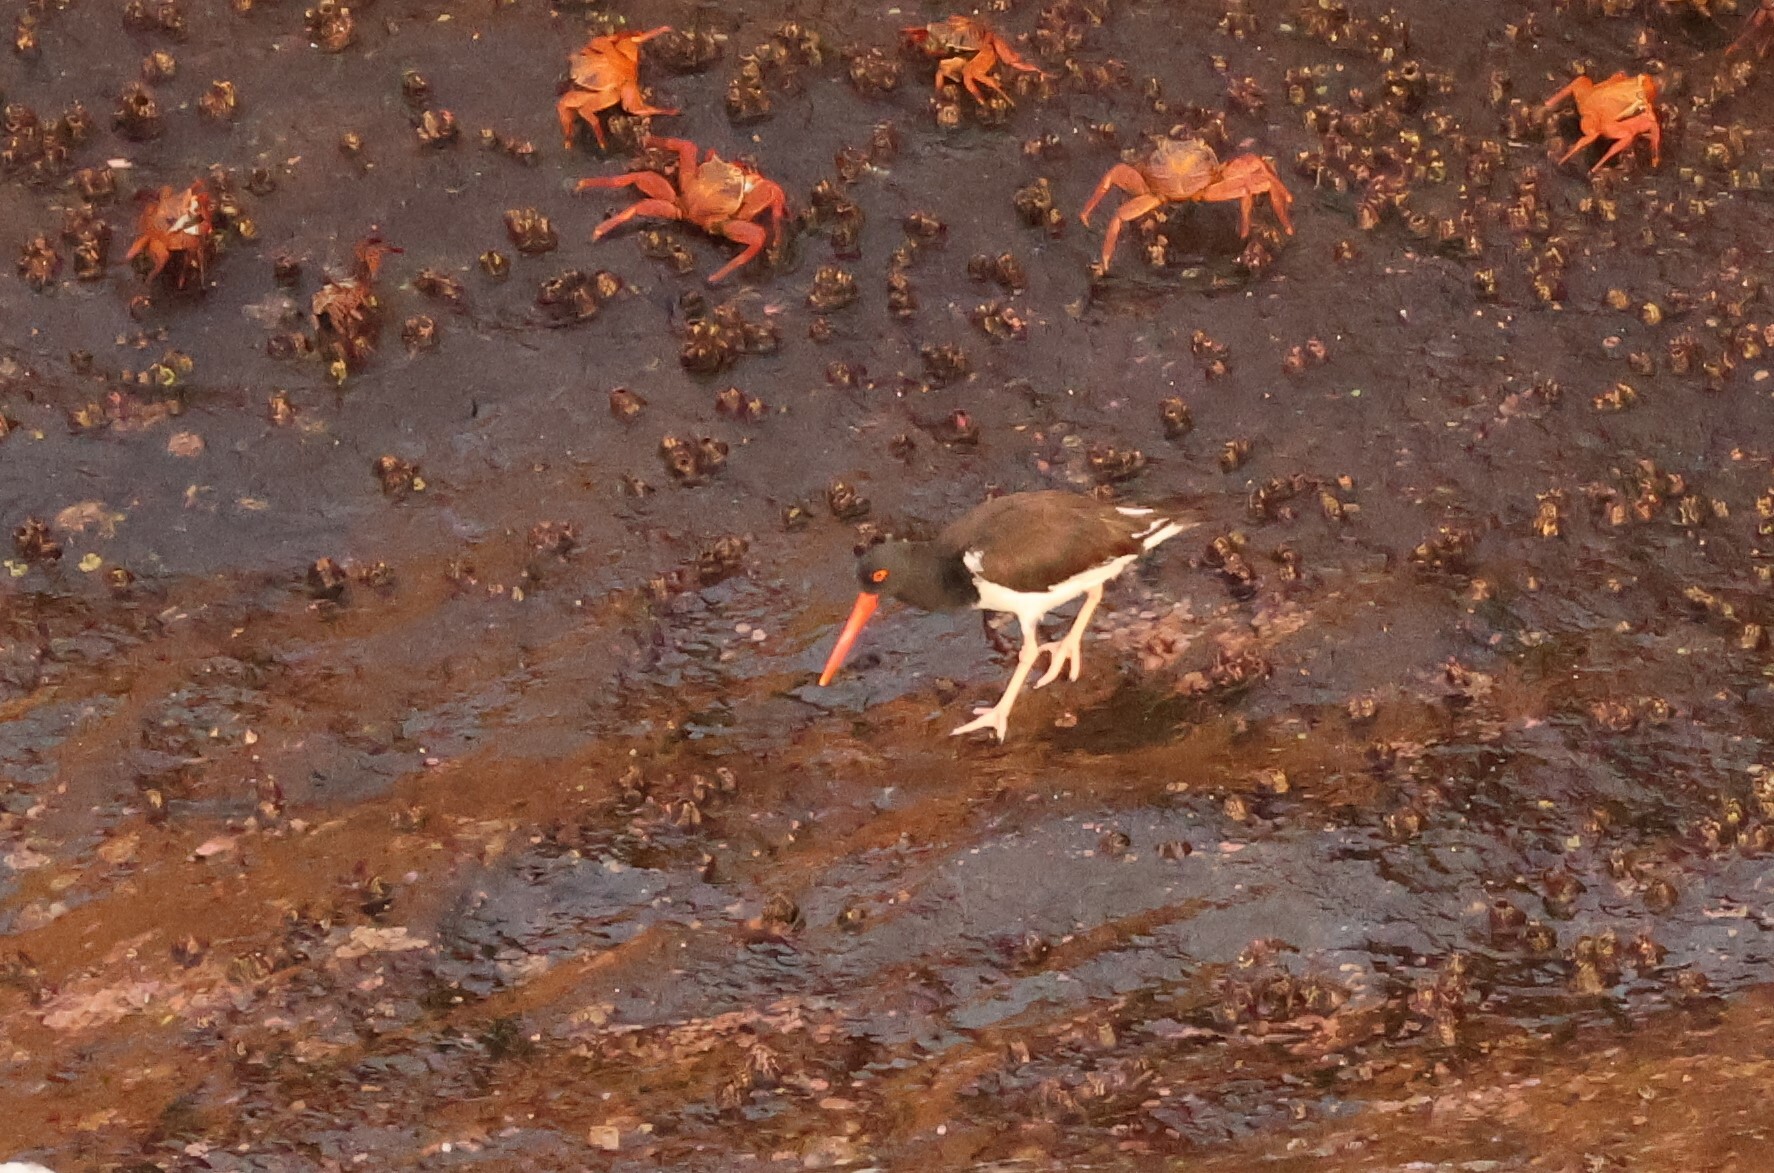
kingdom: Animalia
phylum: Chordata
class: Aves
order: Charadriiformes
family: Haematopodidae
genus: Haematopus
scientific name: Haematopus palliatus
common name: American oystercatcher
